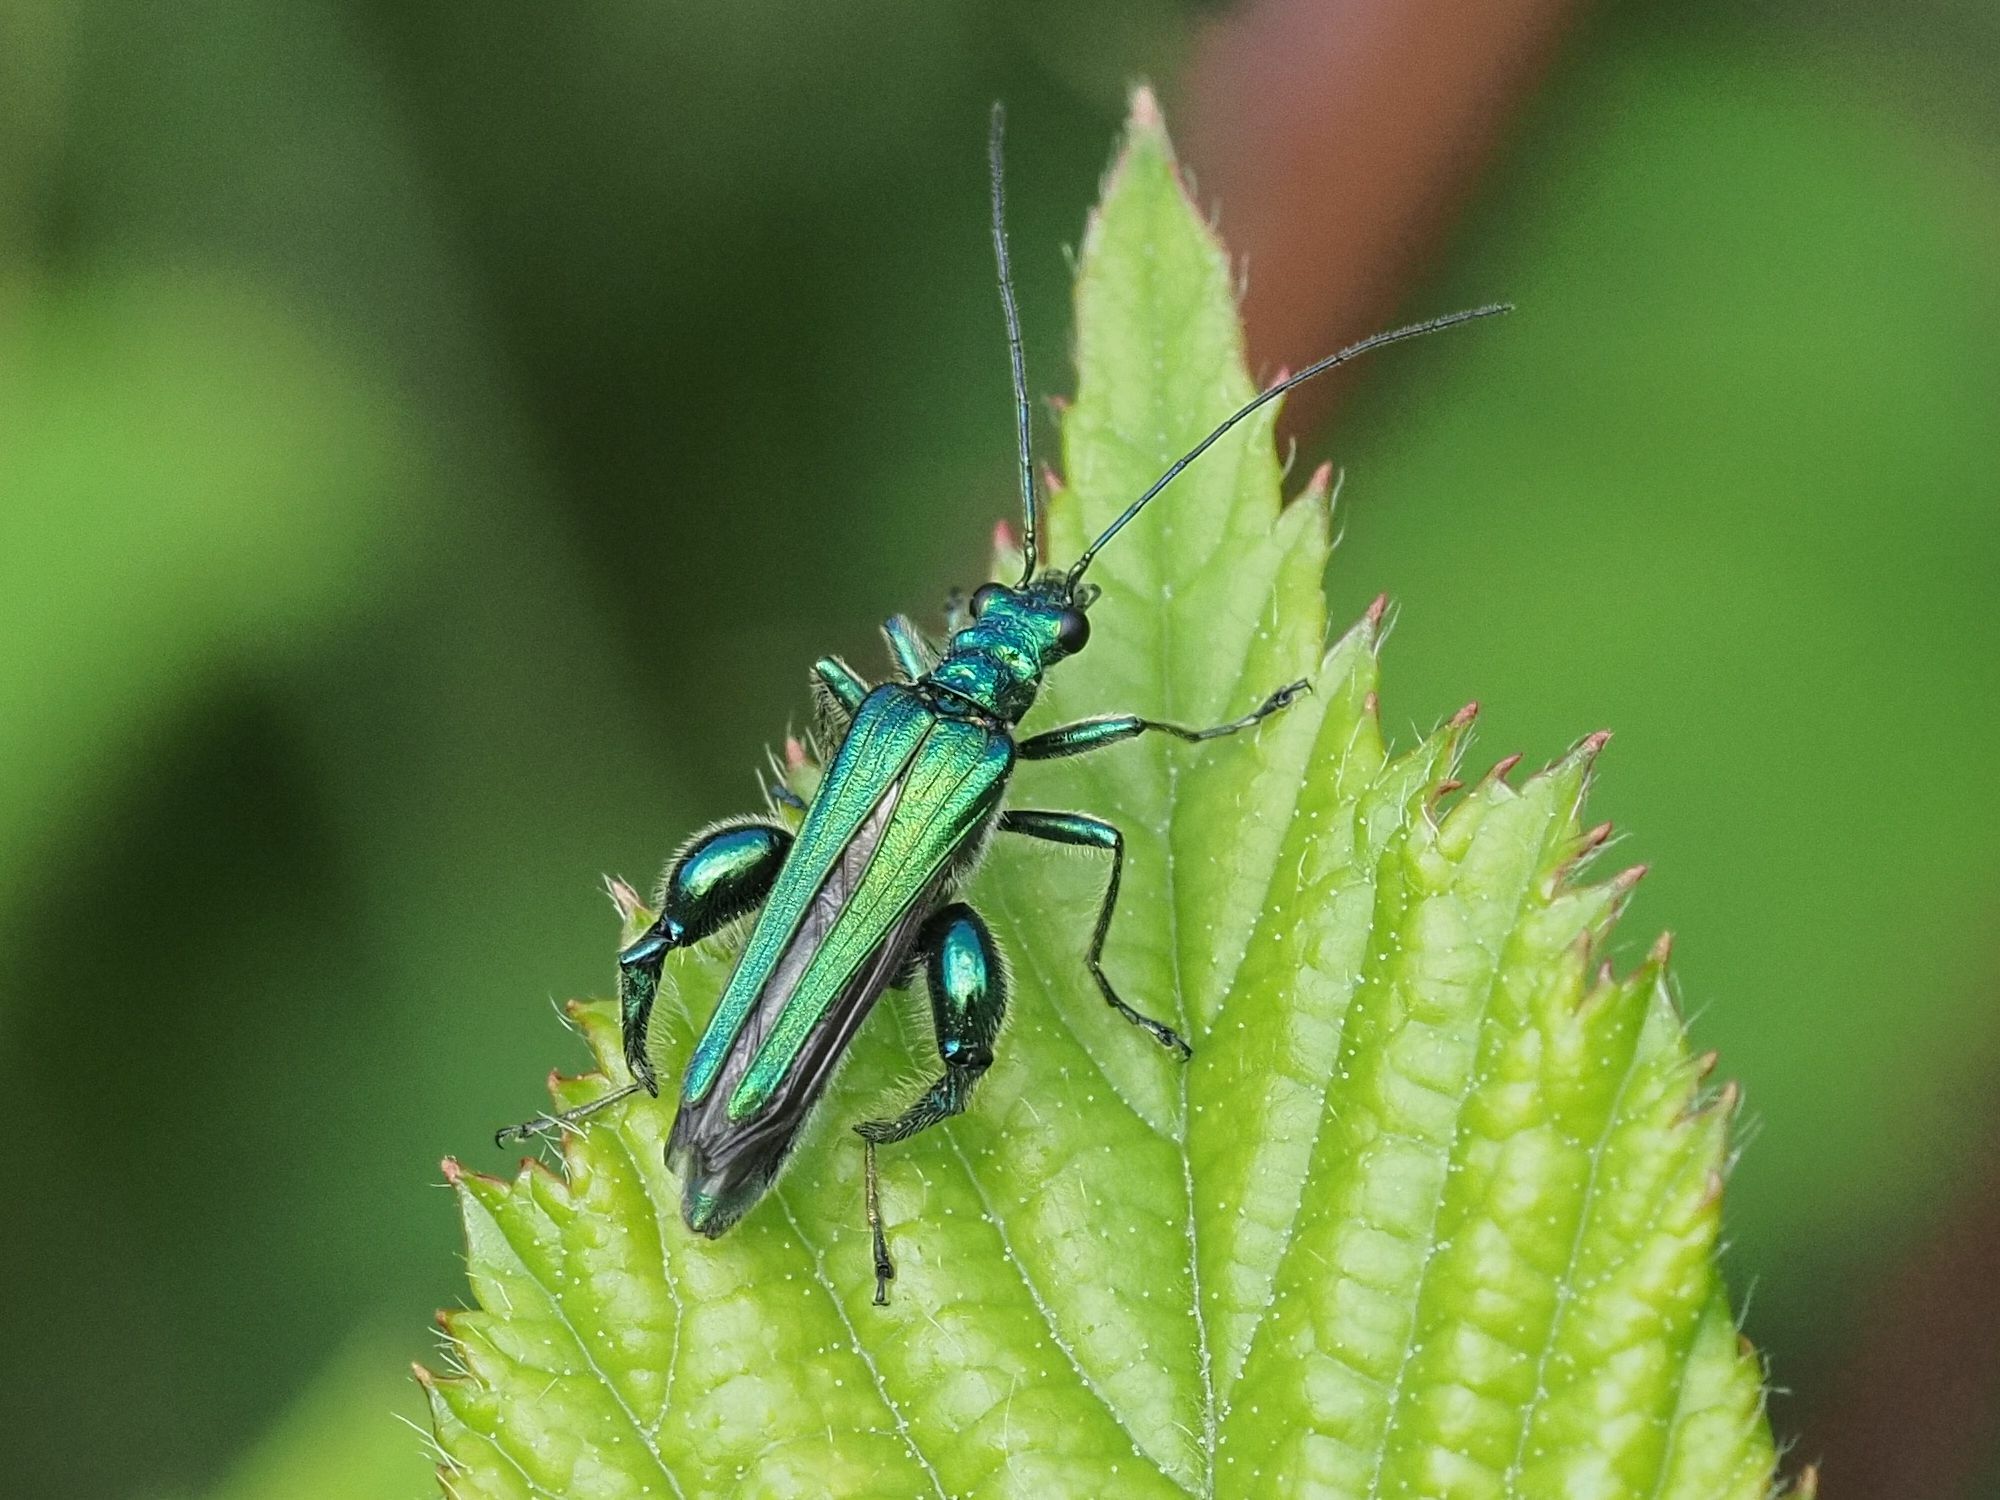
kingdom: Animalia
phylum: Arthropoda
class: Insecta
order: Coleoptera
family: Oedemeridae
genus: Oedemera
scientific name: Oedemera nobilis
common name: Swollen-thighed beetle
